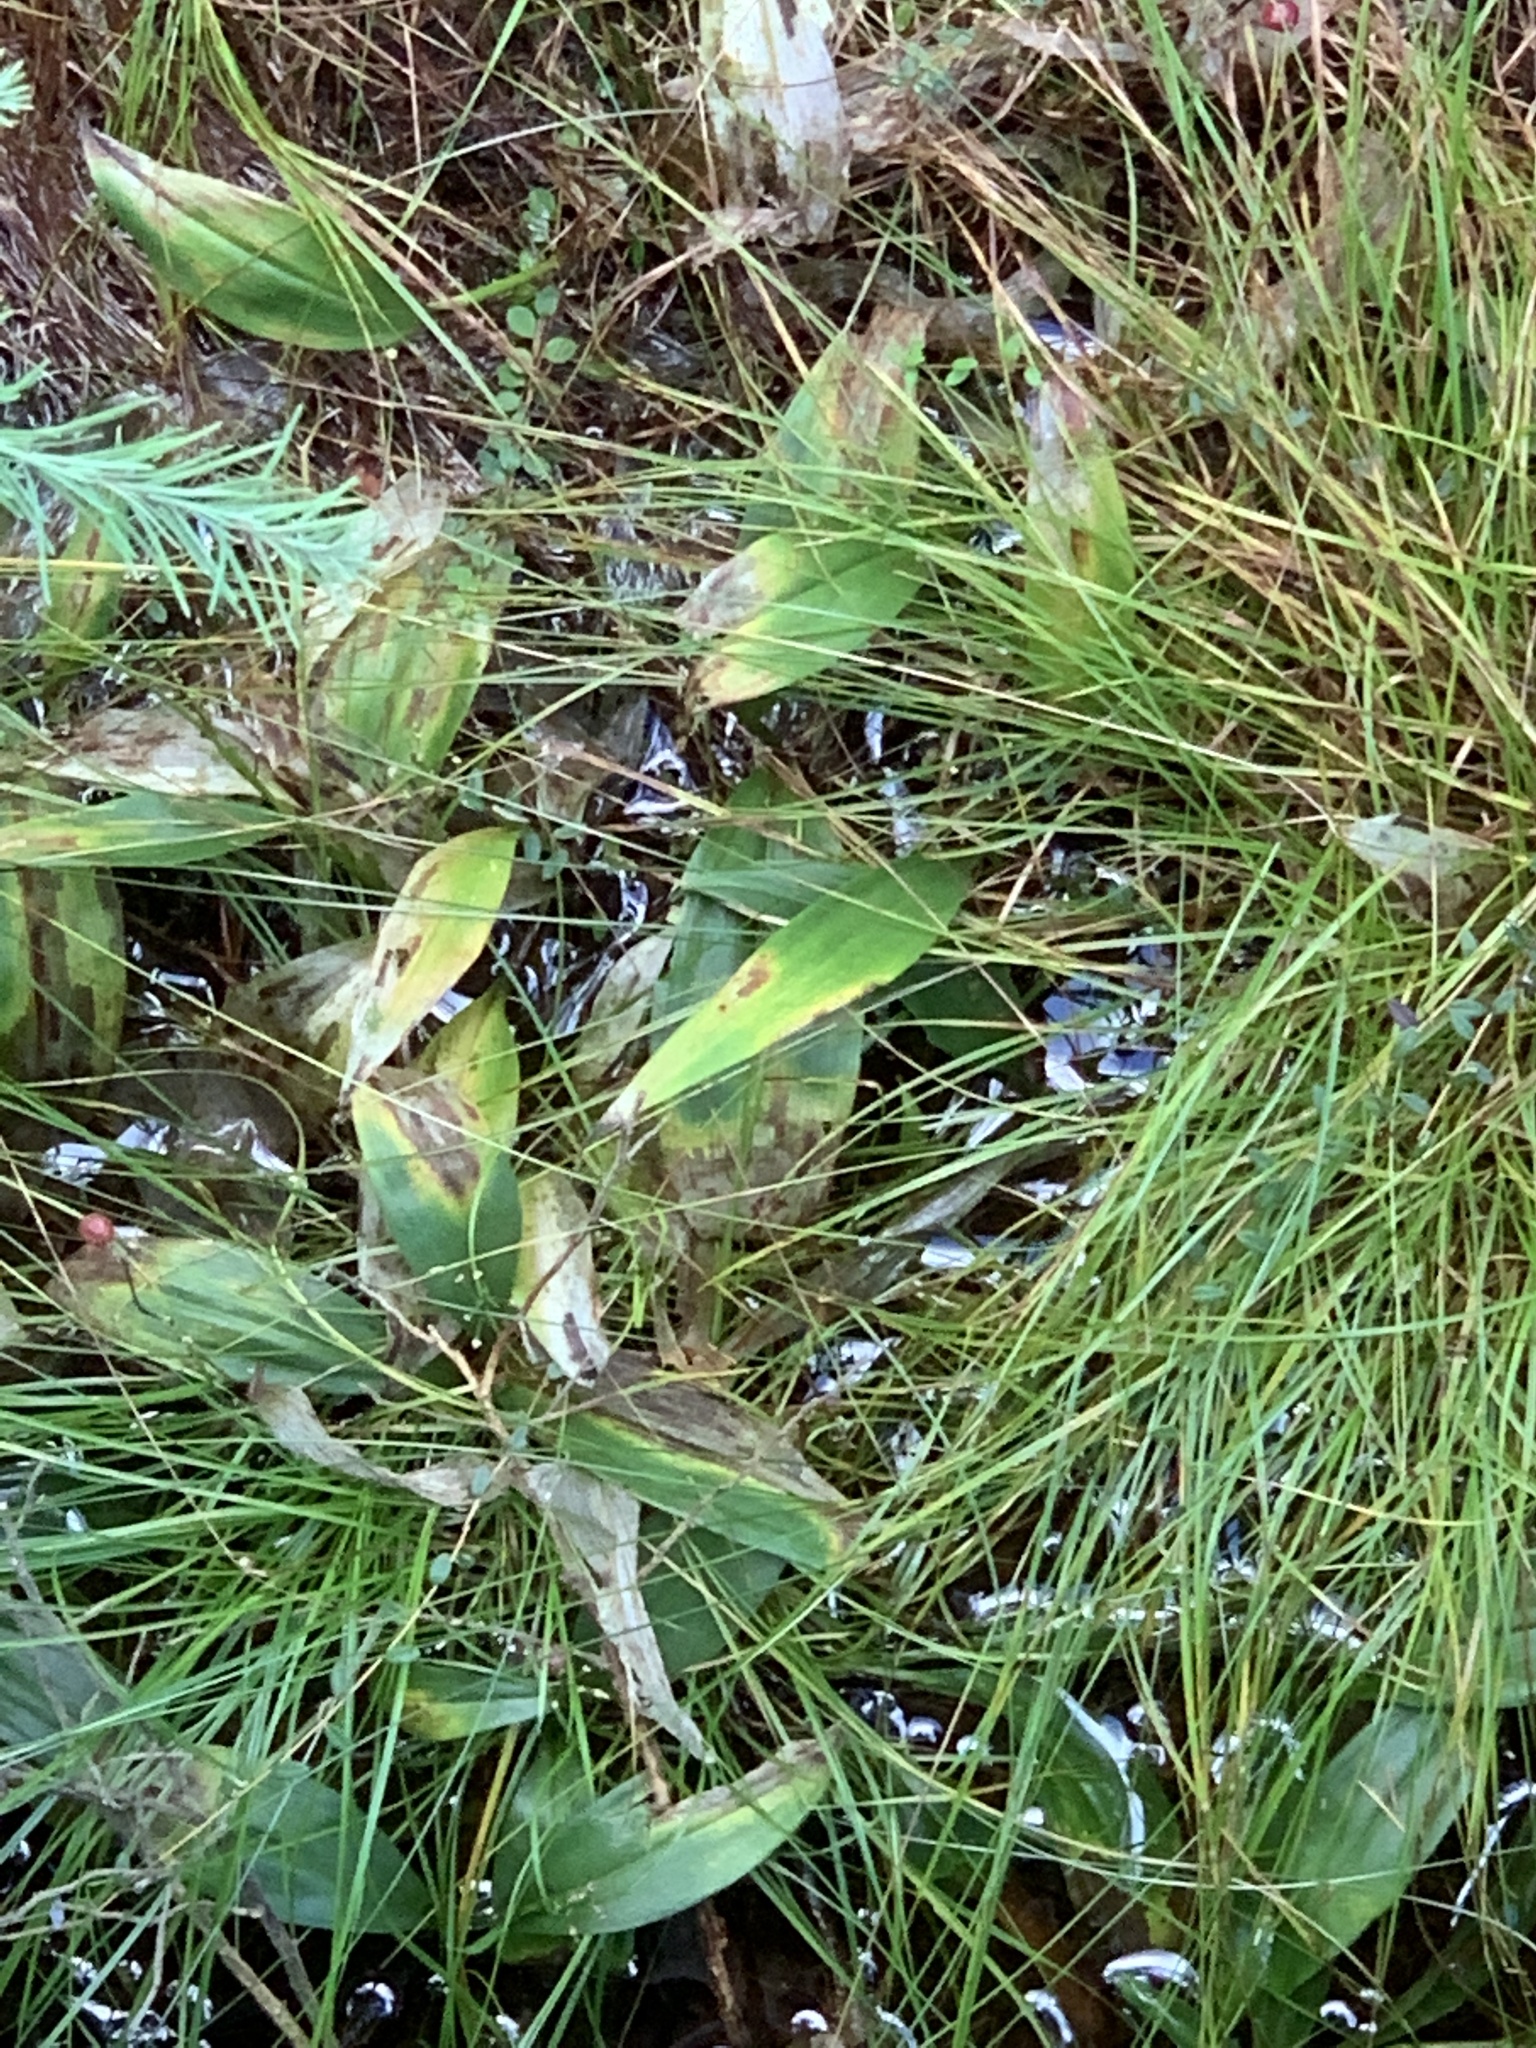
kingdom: Plantae
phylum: Tracheophyta
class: Liliopsida
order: Asparagales
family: Asparagaceae
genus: Maianthemum
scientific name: Maianthemum trifolium
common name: Swamp false solomon's seal
